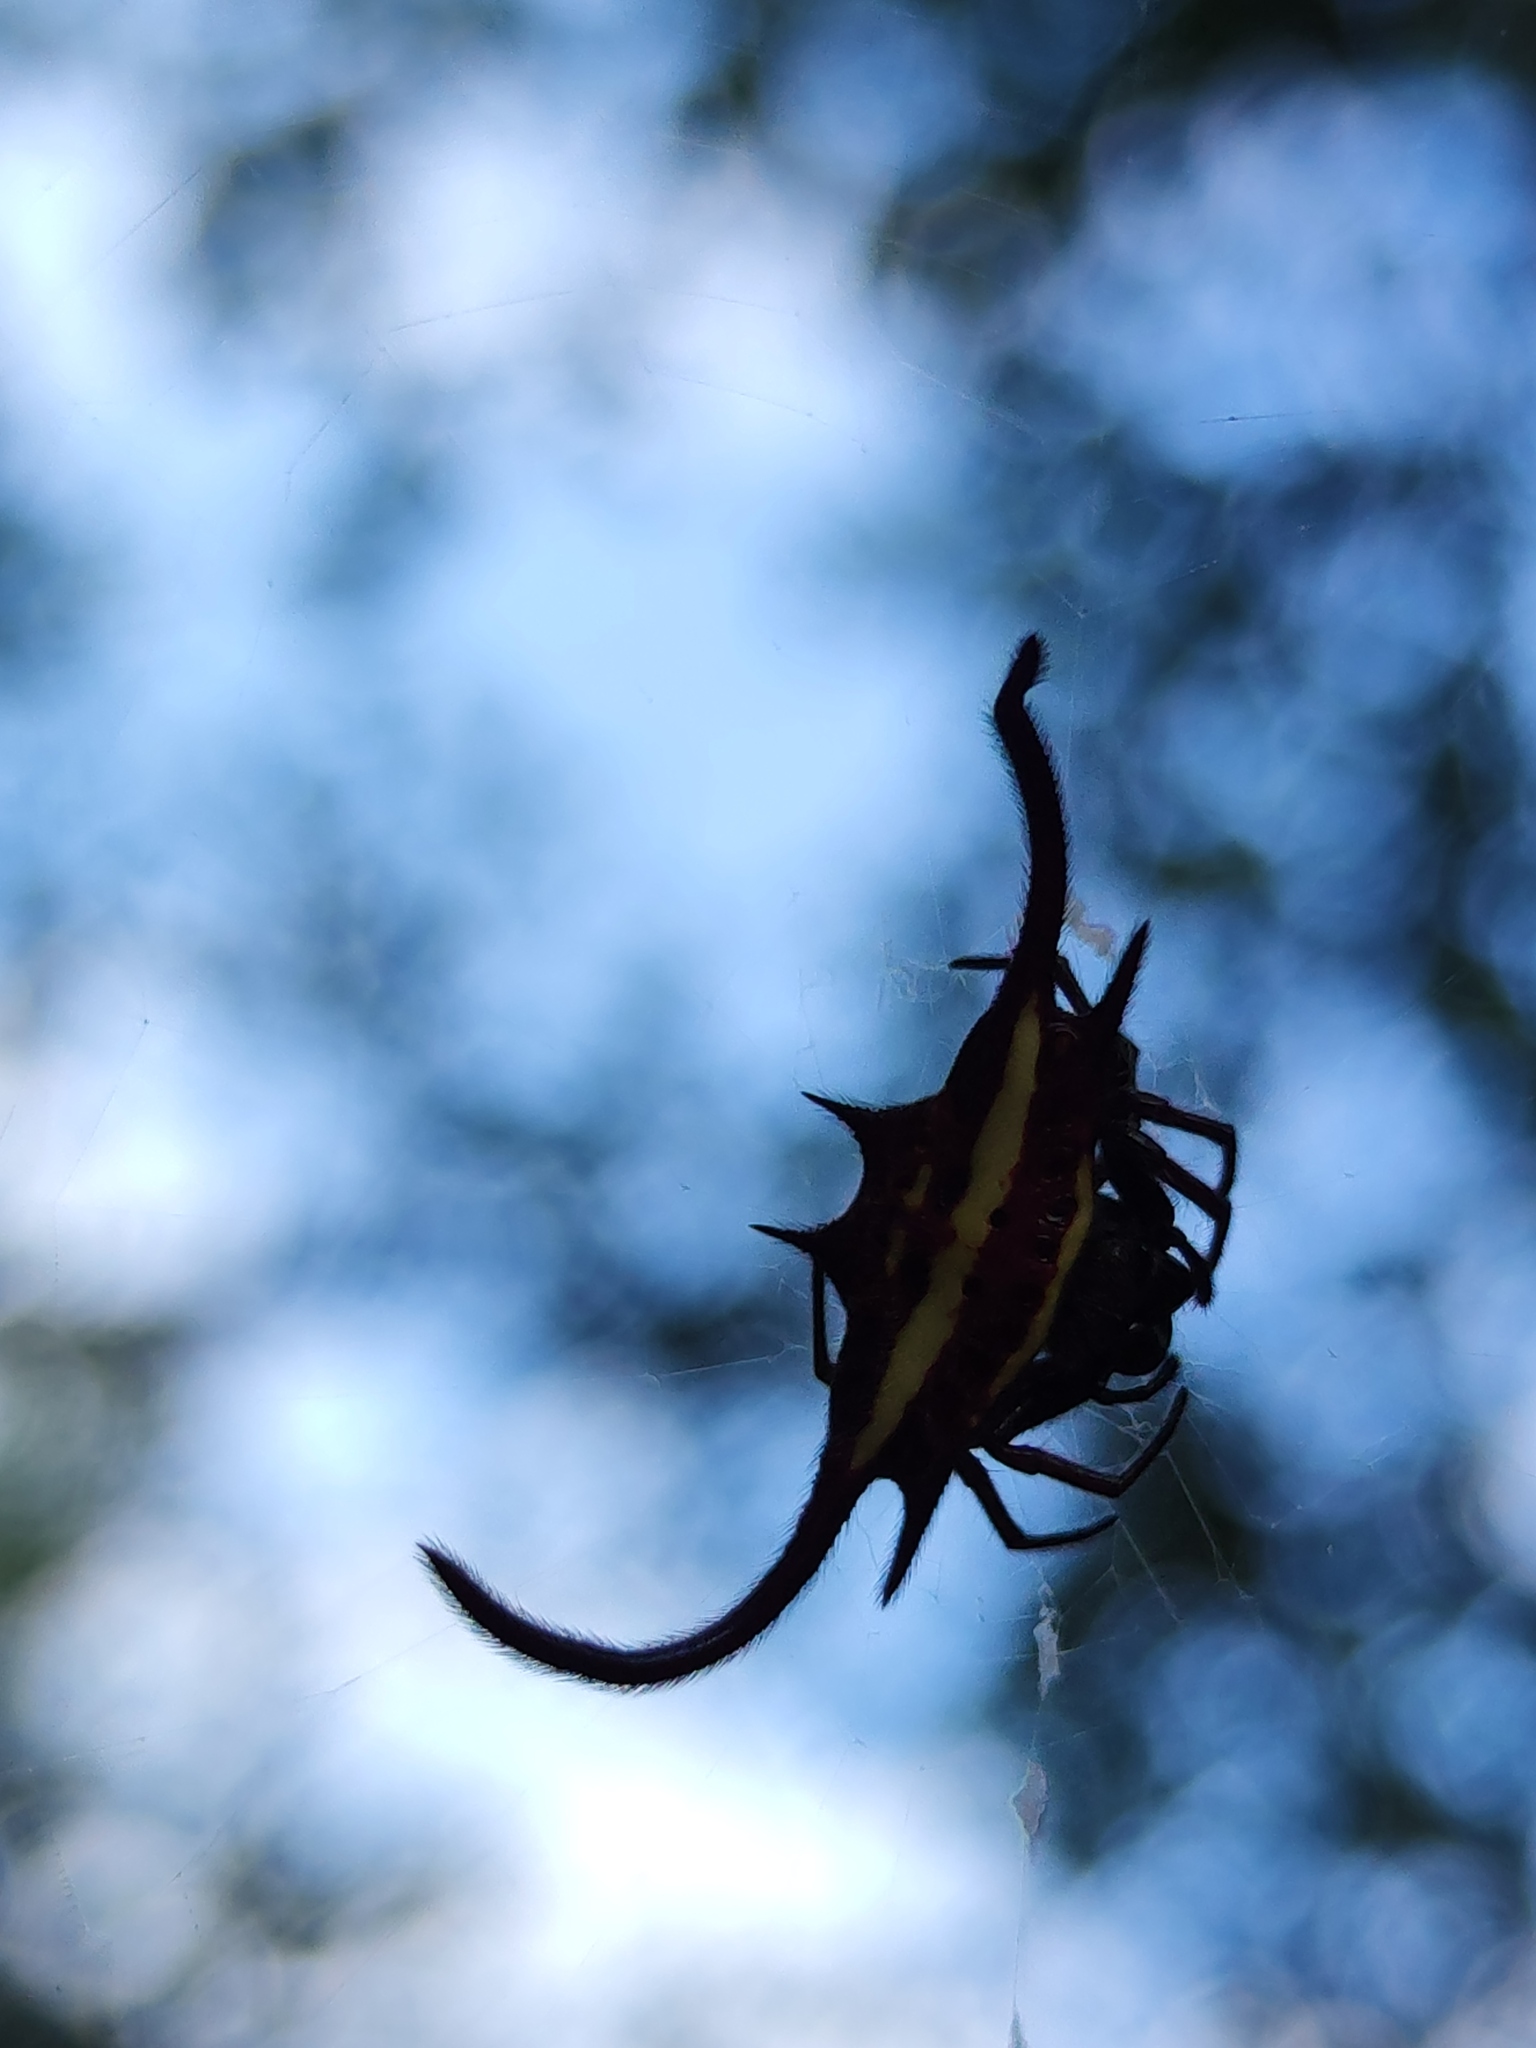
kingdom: Animalia
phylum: Arthropoda
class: Arachnida
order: Araneae
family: Araneidae
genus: Gasteracantha
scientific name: Gasteracantha falcicornis
